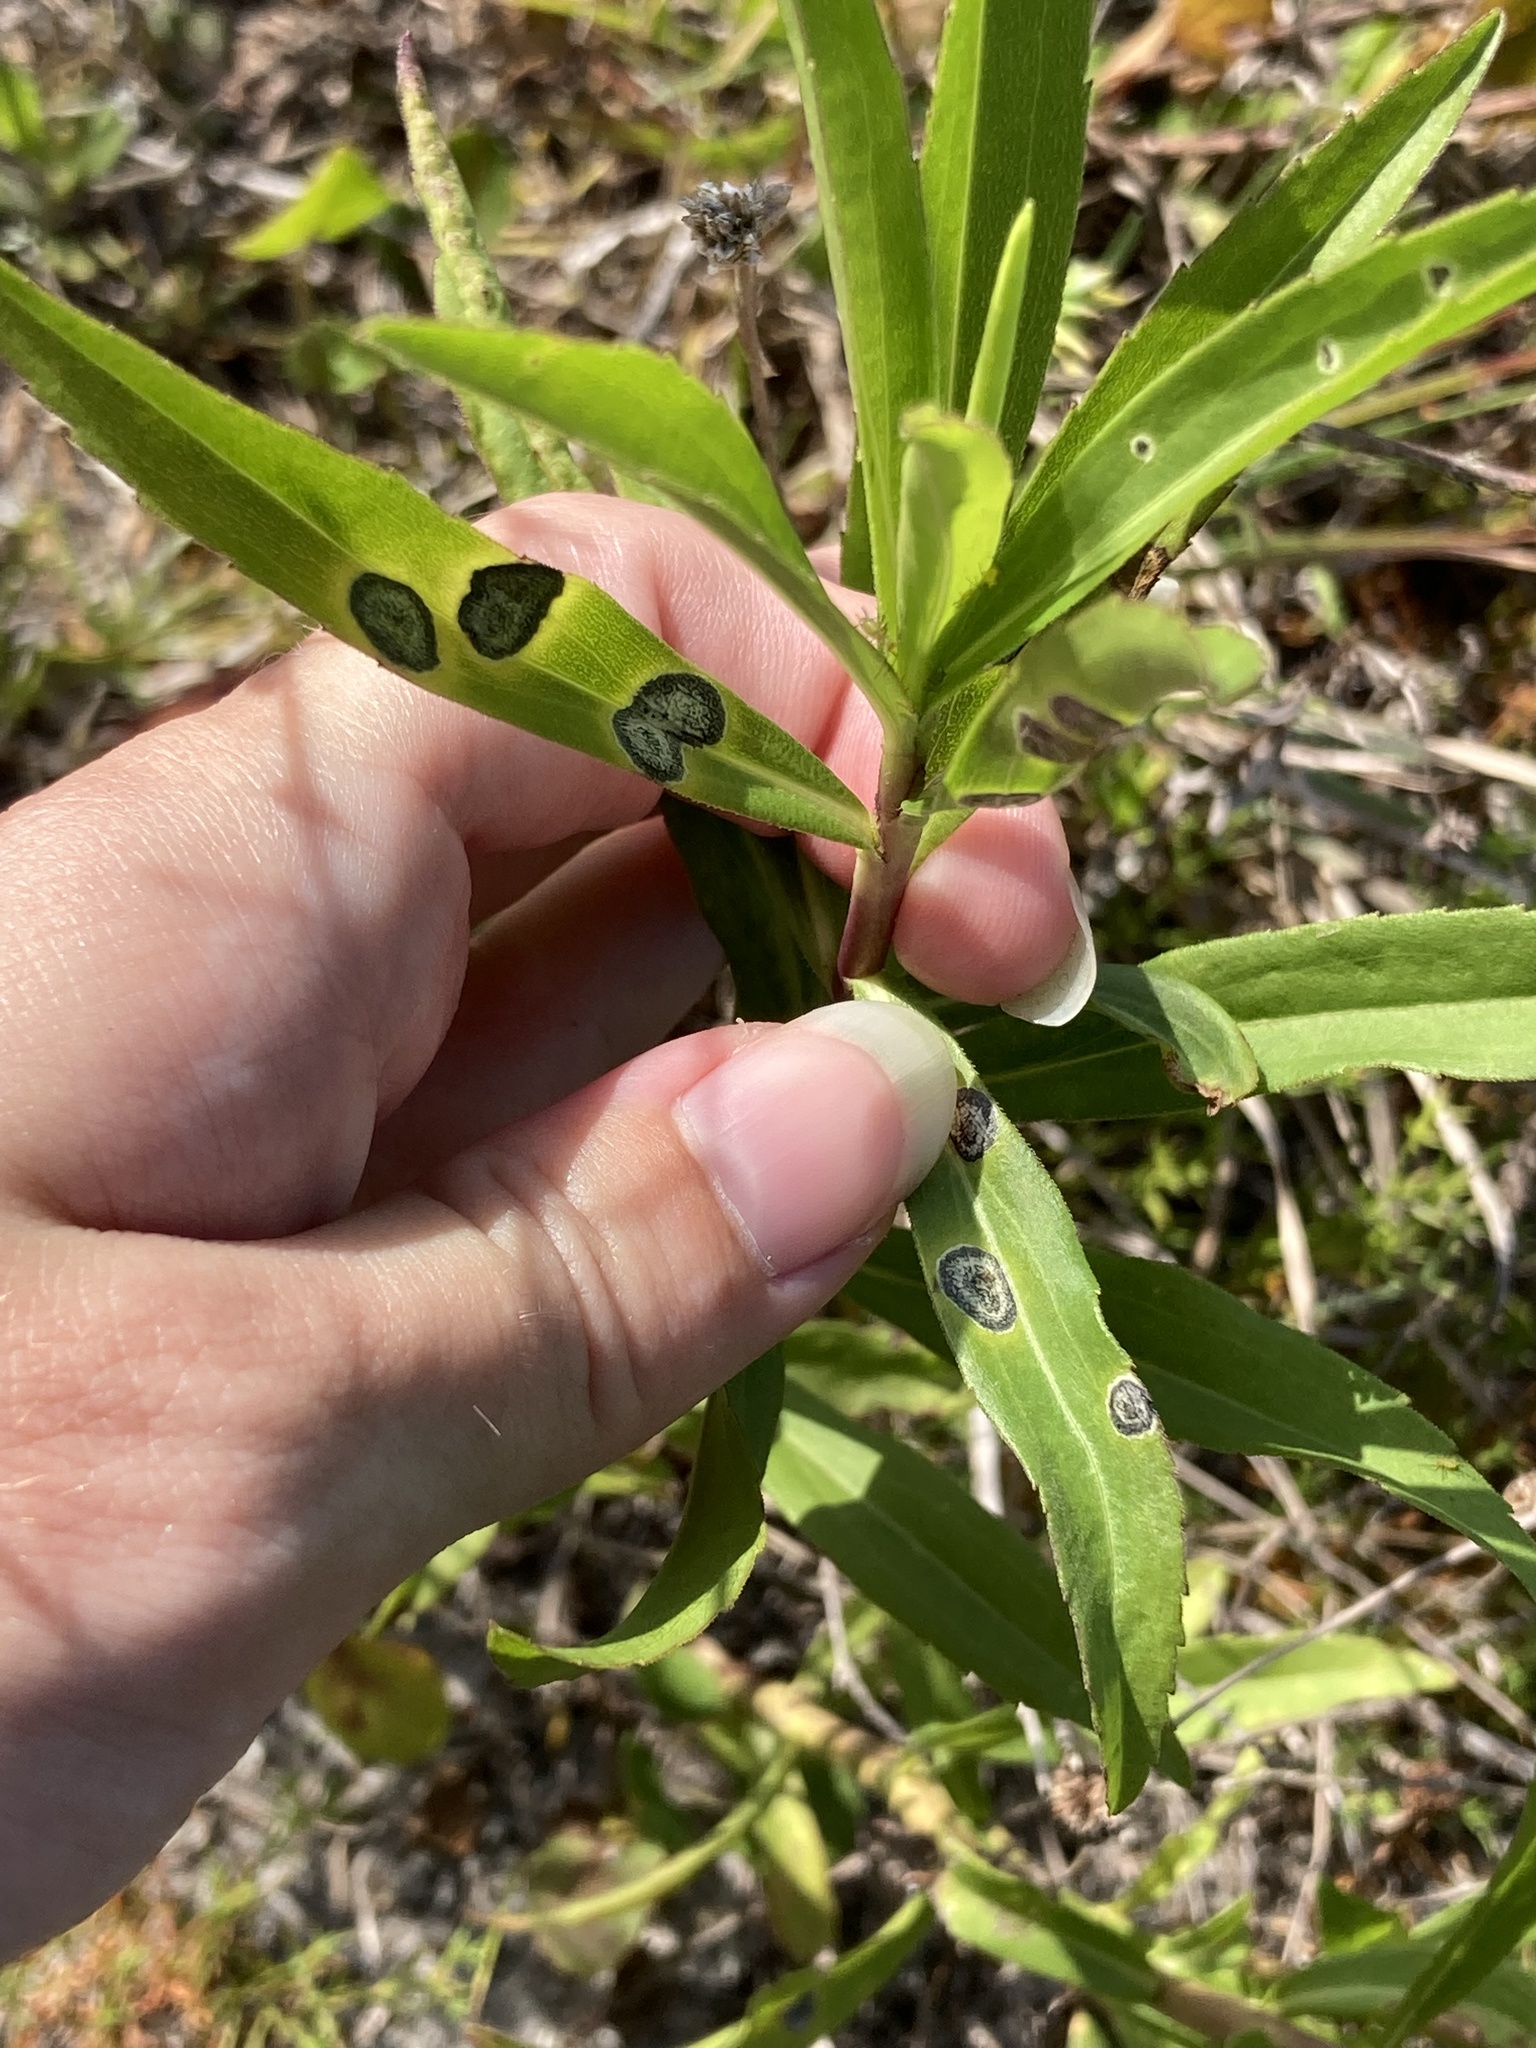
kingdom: Animalia
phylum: Arthropoda
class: Insecta
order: Diptera
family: Cecidomyiidae
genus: Asteromyia
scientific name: Asteromyia carbonifera
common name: Carbonifera goldenrod gall midge
